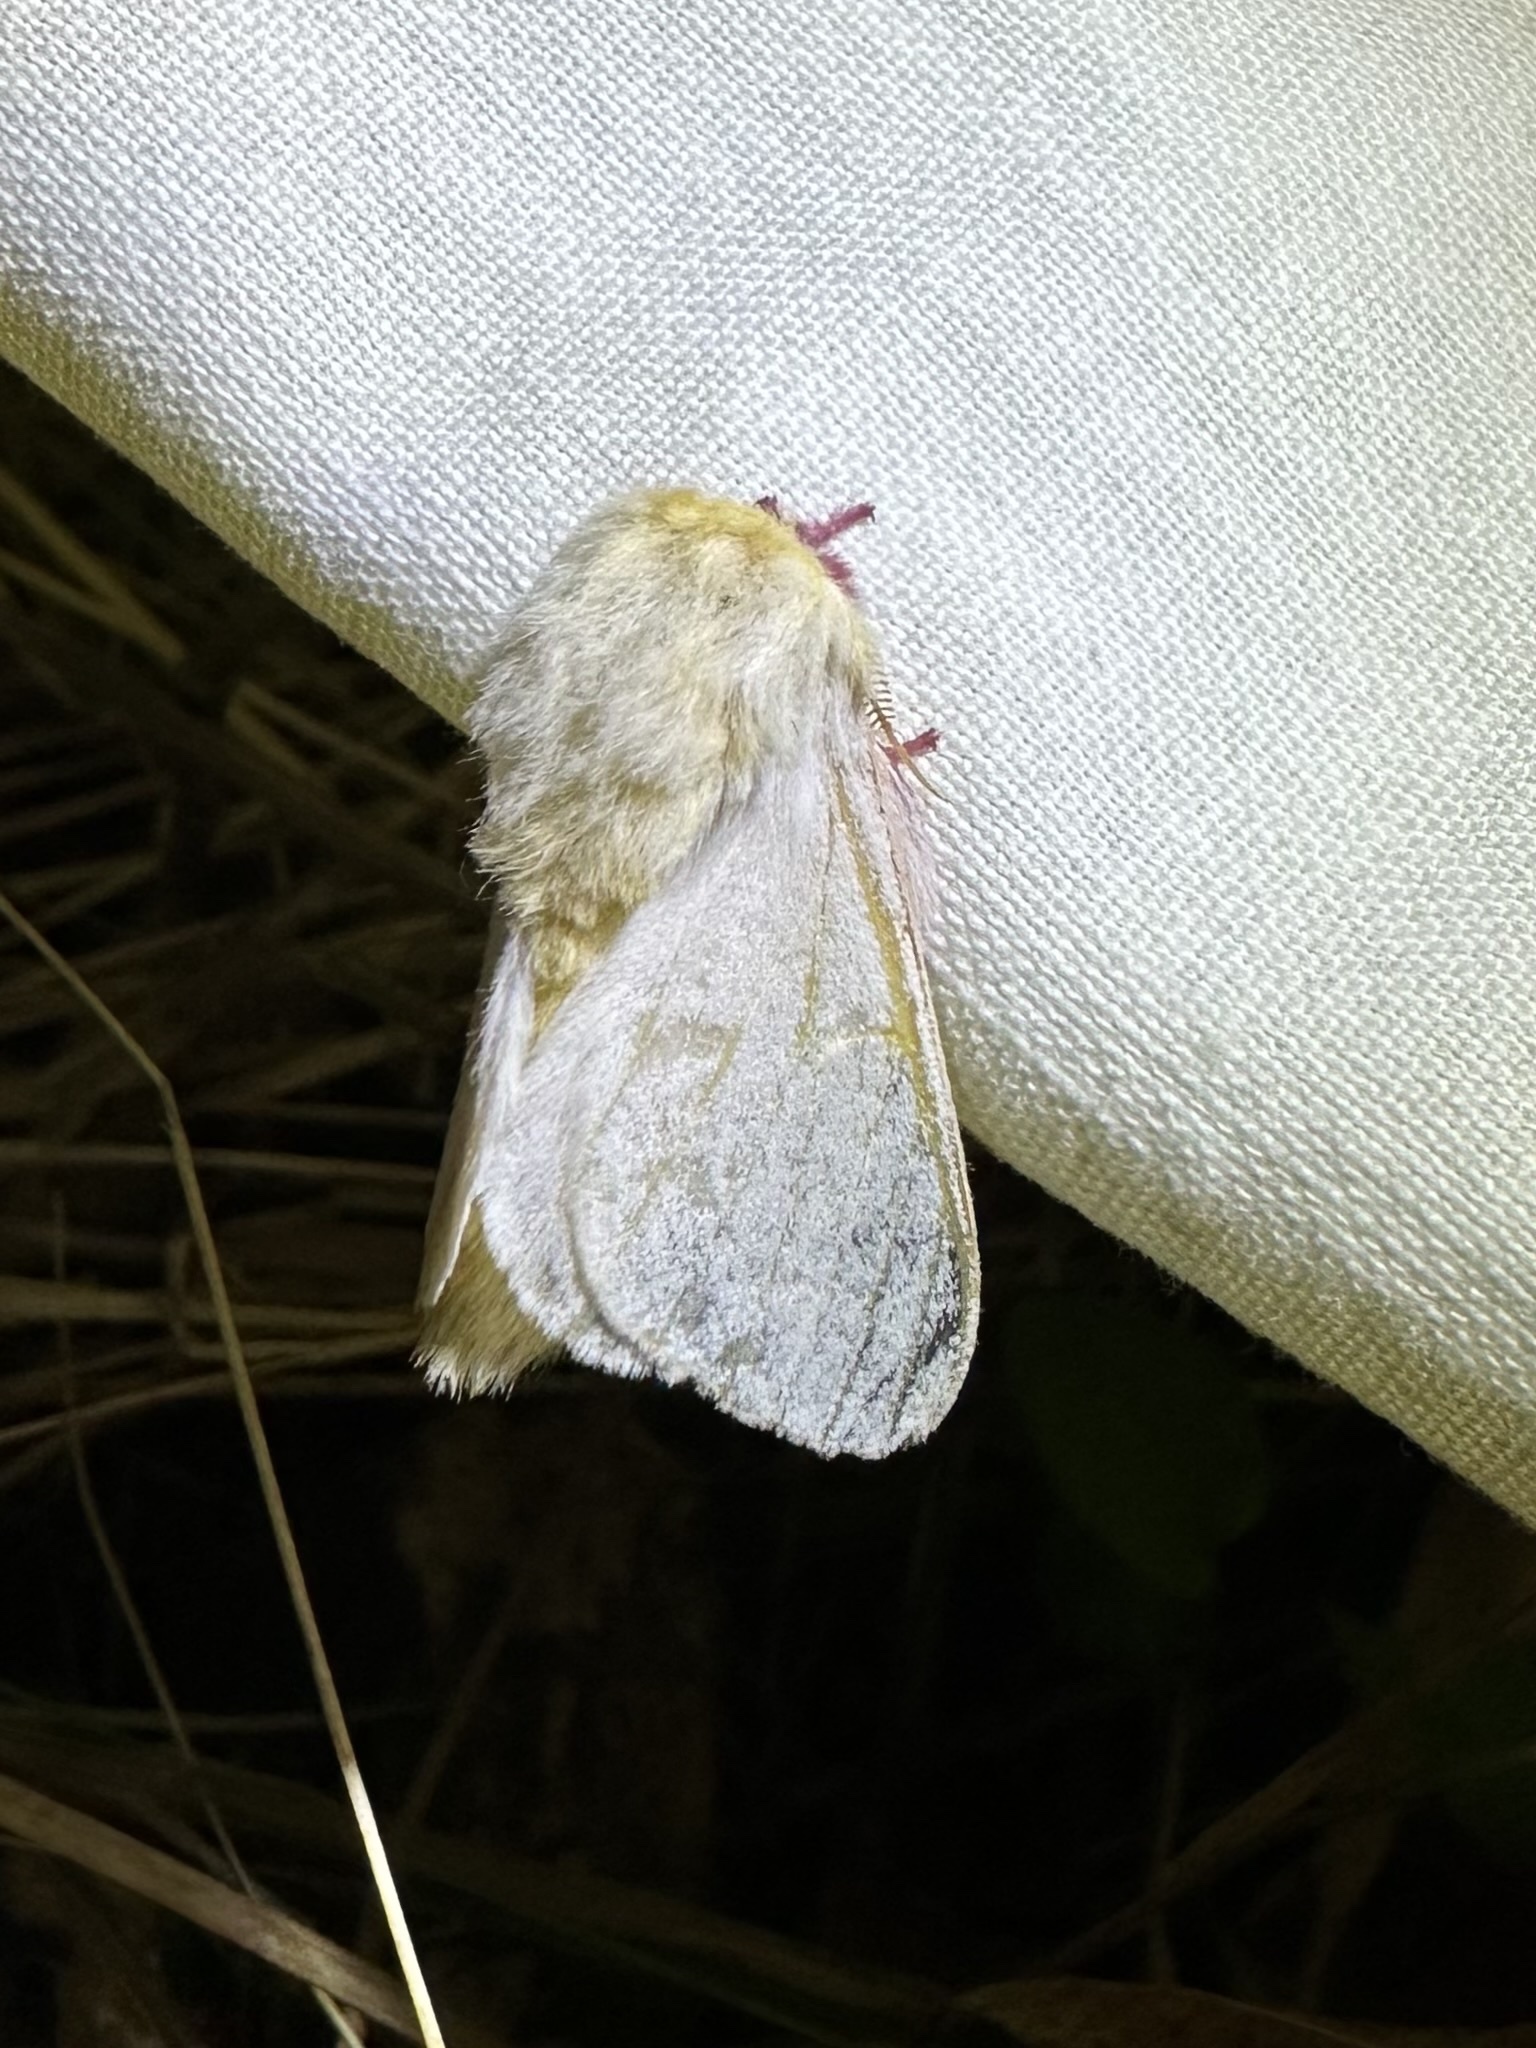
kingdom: Animalia
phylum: Arthropoda
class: Insecta
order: Lepidoptera
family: Saturniidae
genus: Dryocampa
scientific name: Dryocampa rubicunda
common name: Rosy maple moth
